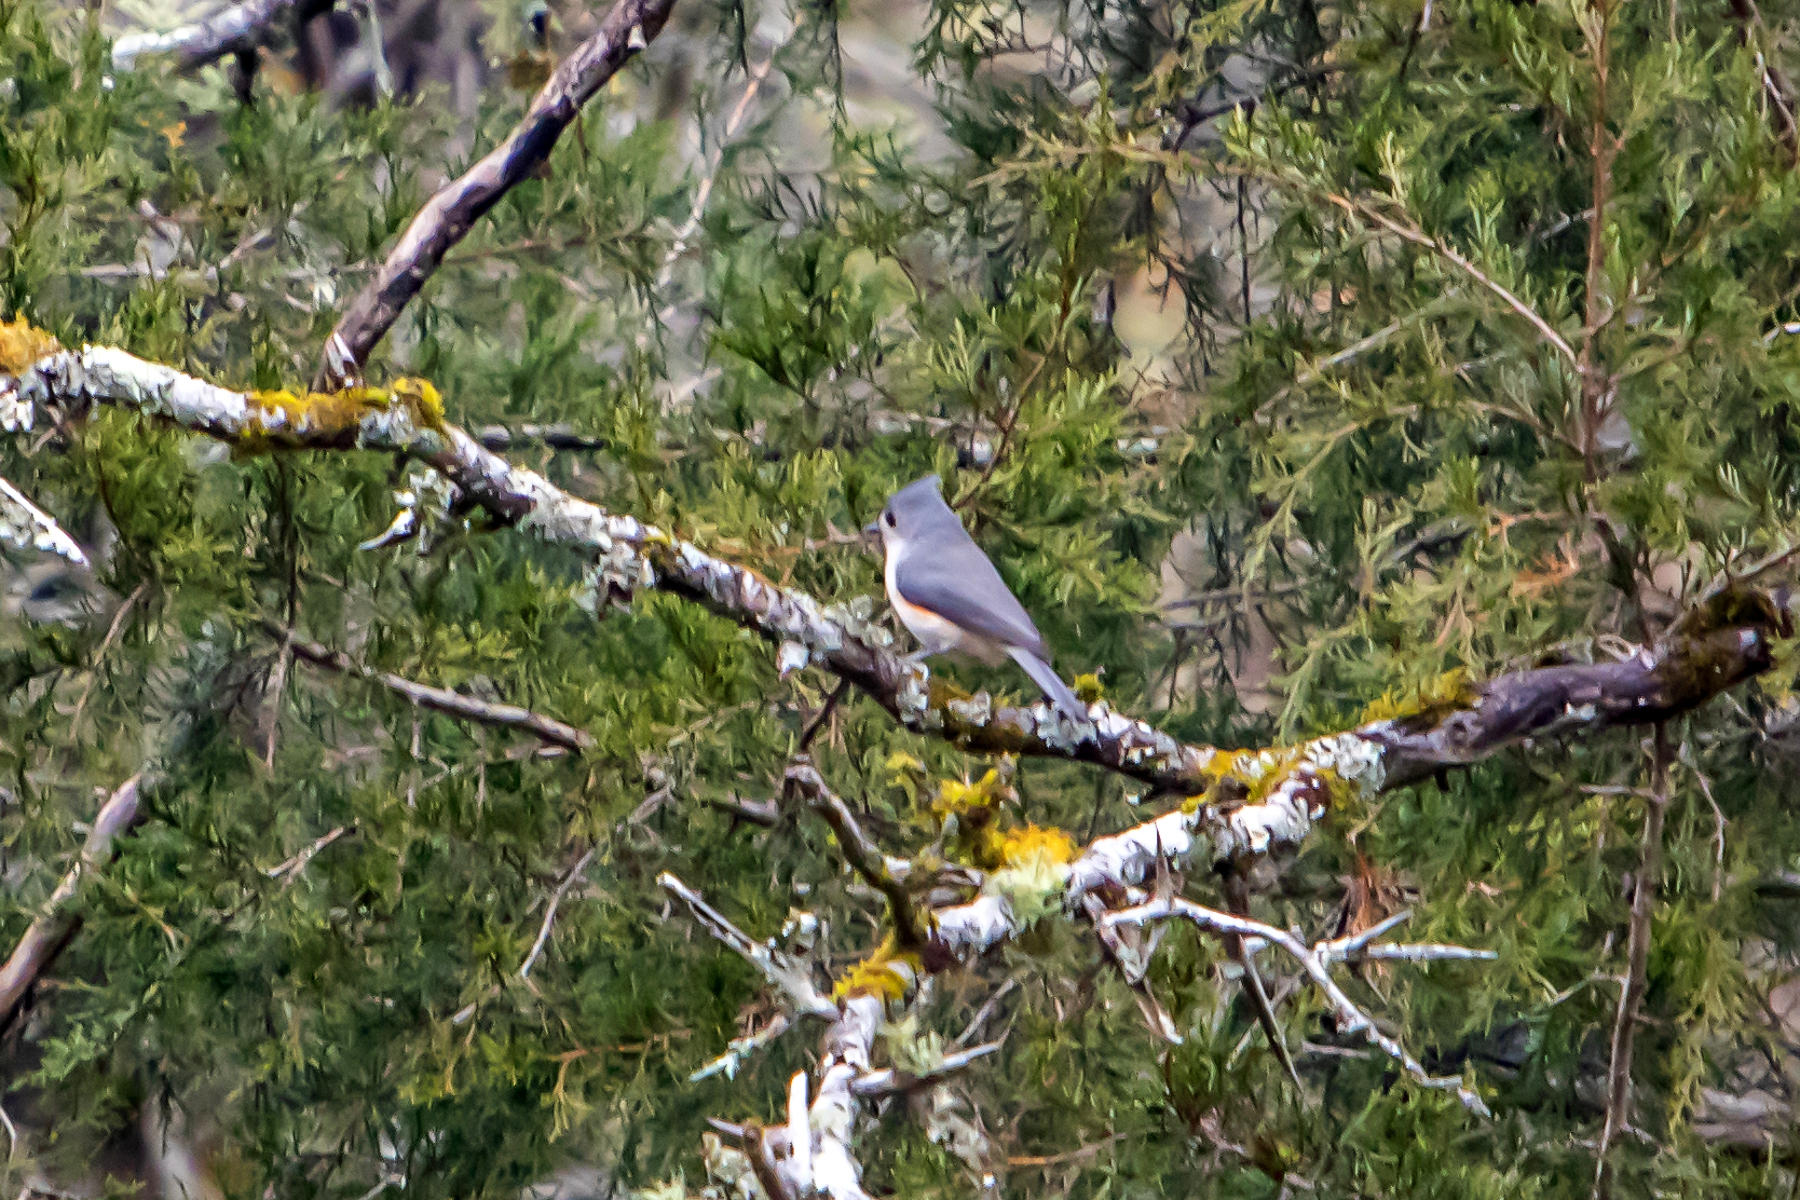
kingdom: Animalia
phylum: Chordata
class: Aves
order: Passeriformes
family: Paridae
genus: Baeolophus
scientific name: Baeolophus bicolor
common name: Tufted titmouse
